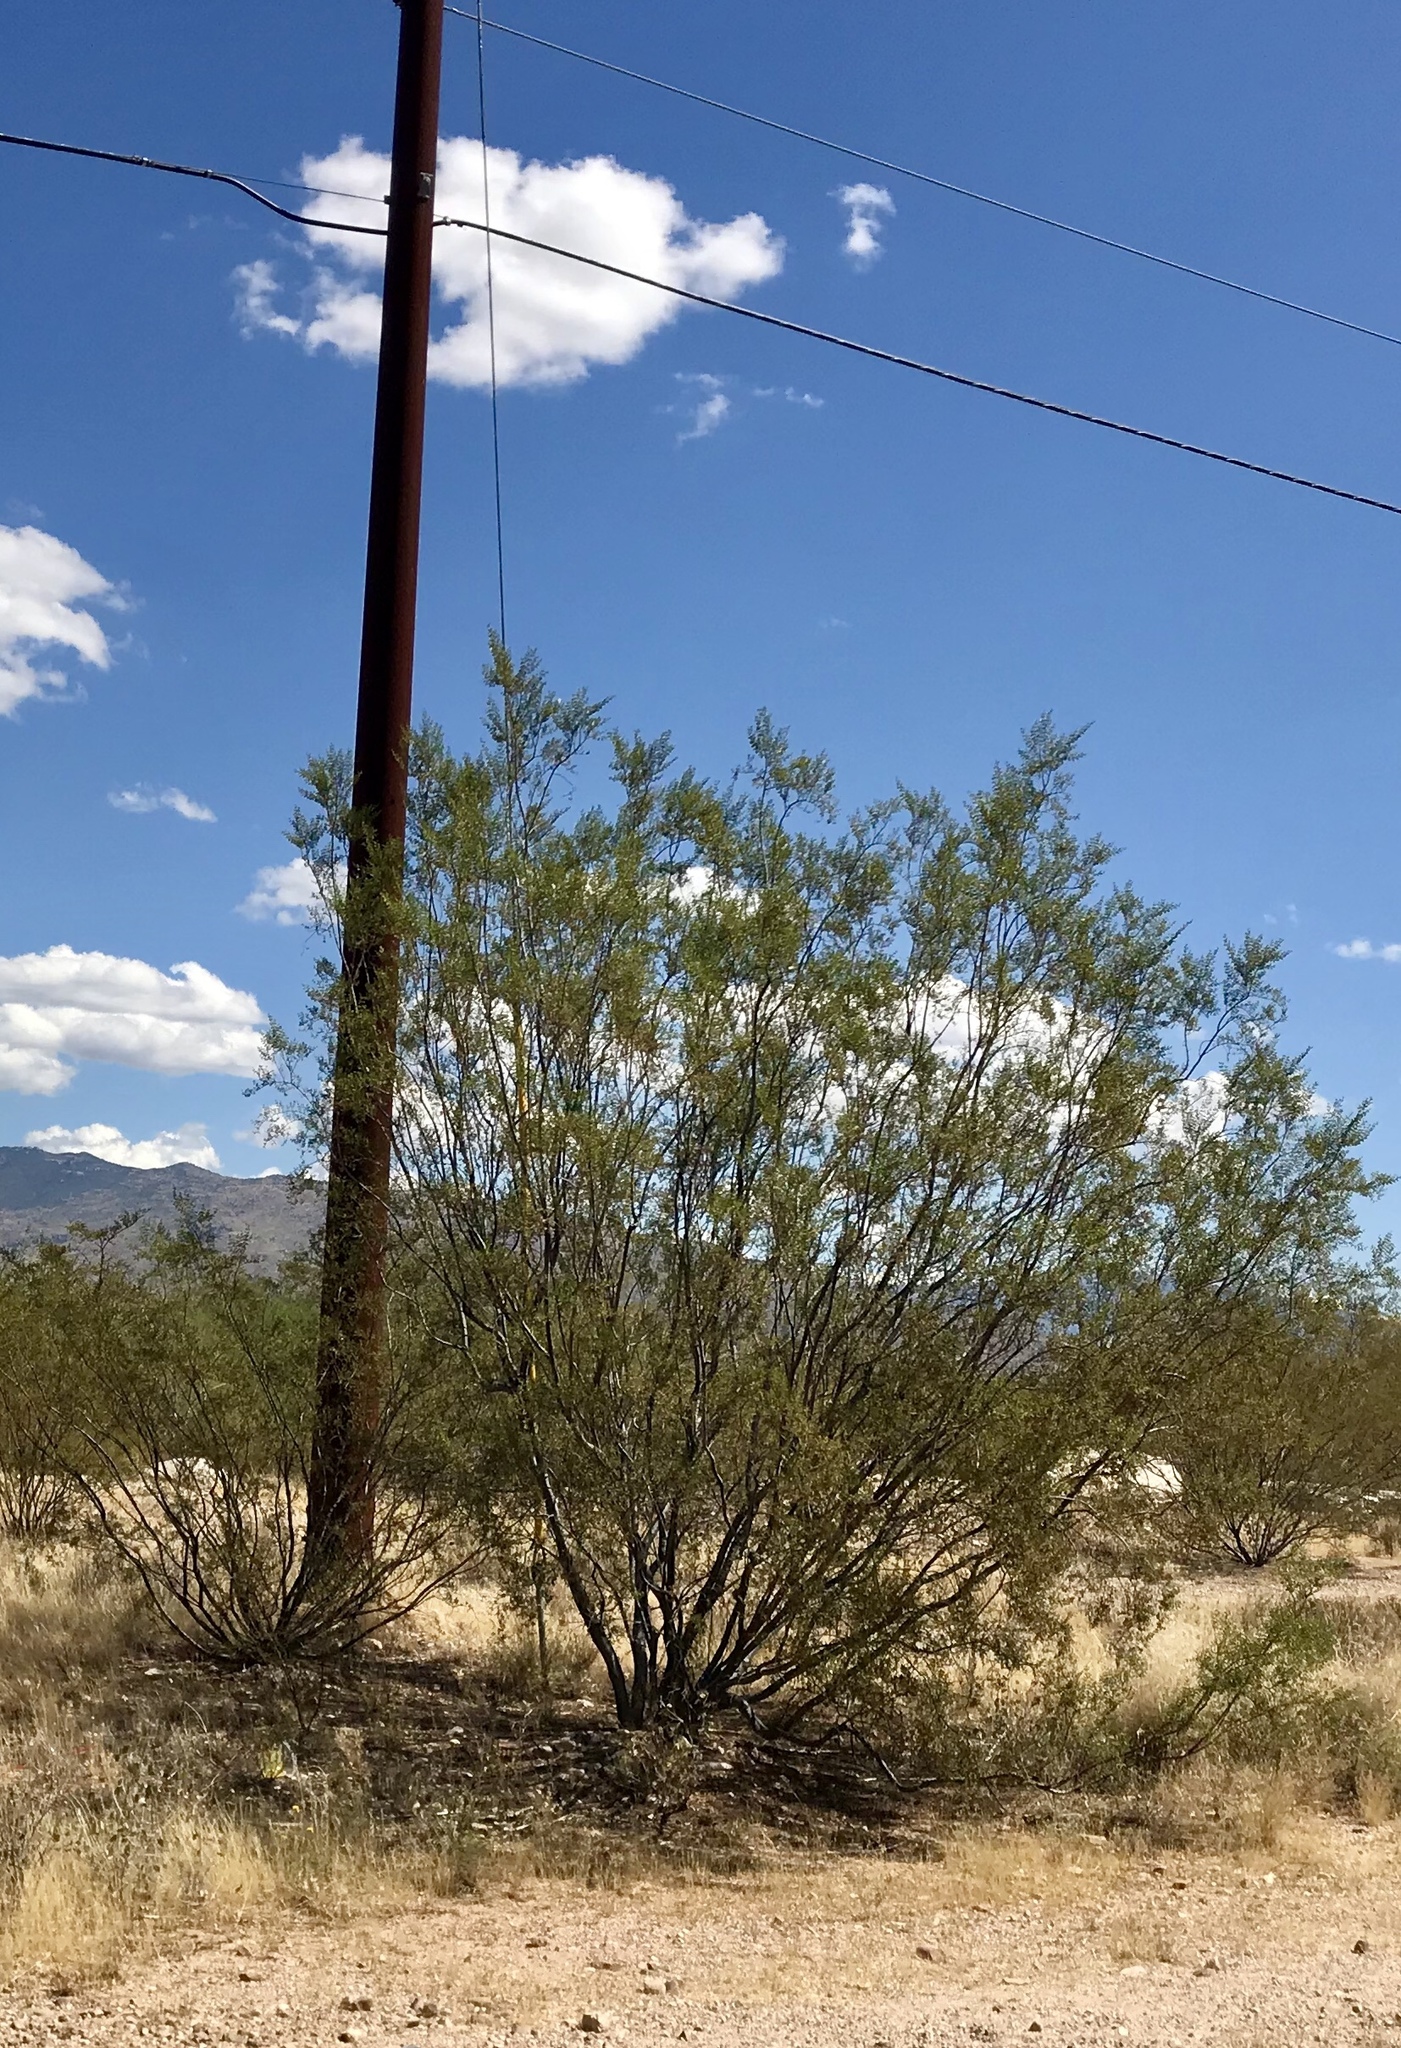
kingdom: Plantae
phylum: Tracheophyta
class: Magnoliopsida
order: Zygophyllales
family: Zygophyllaceae
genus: Larrea
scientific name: Larrea tridentata
